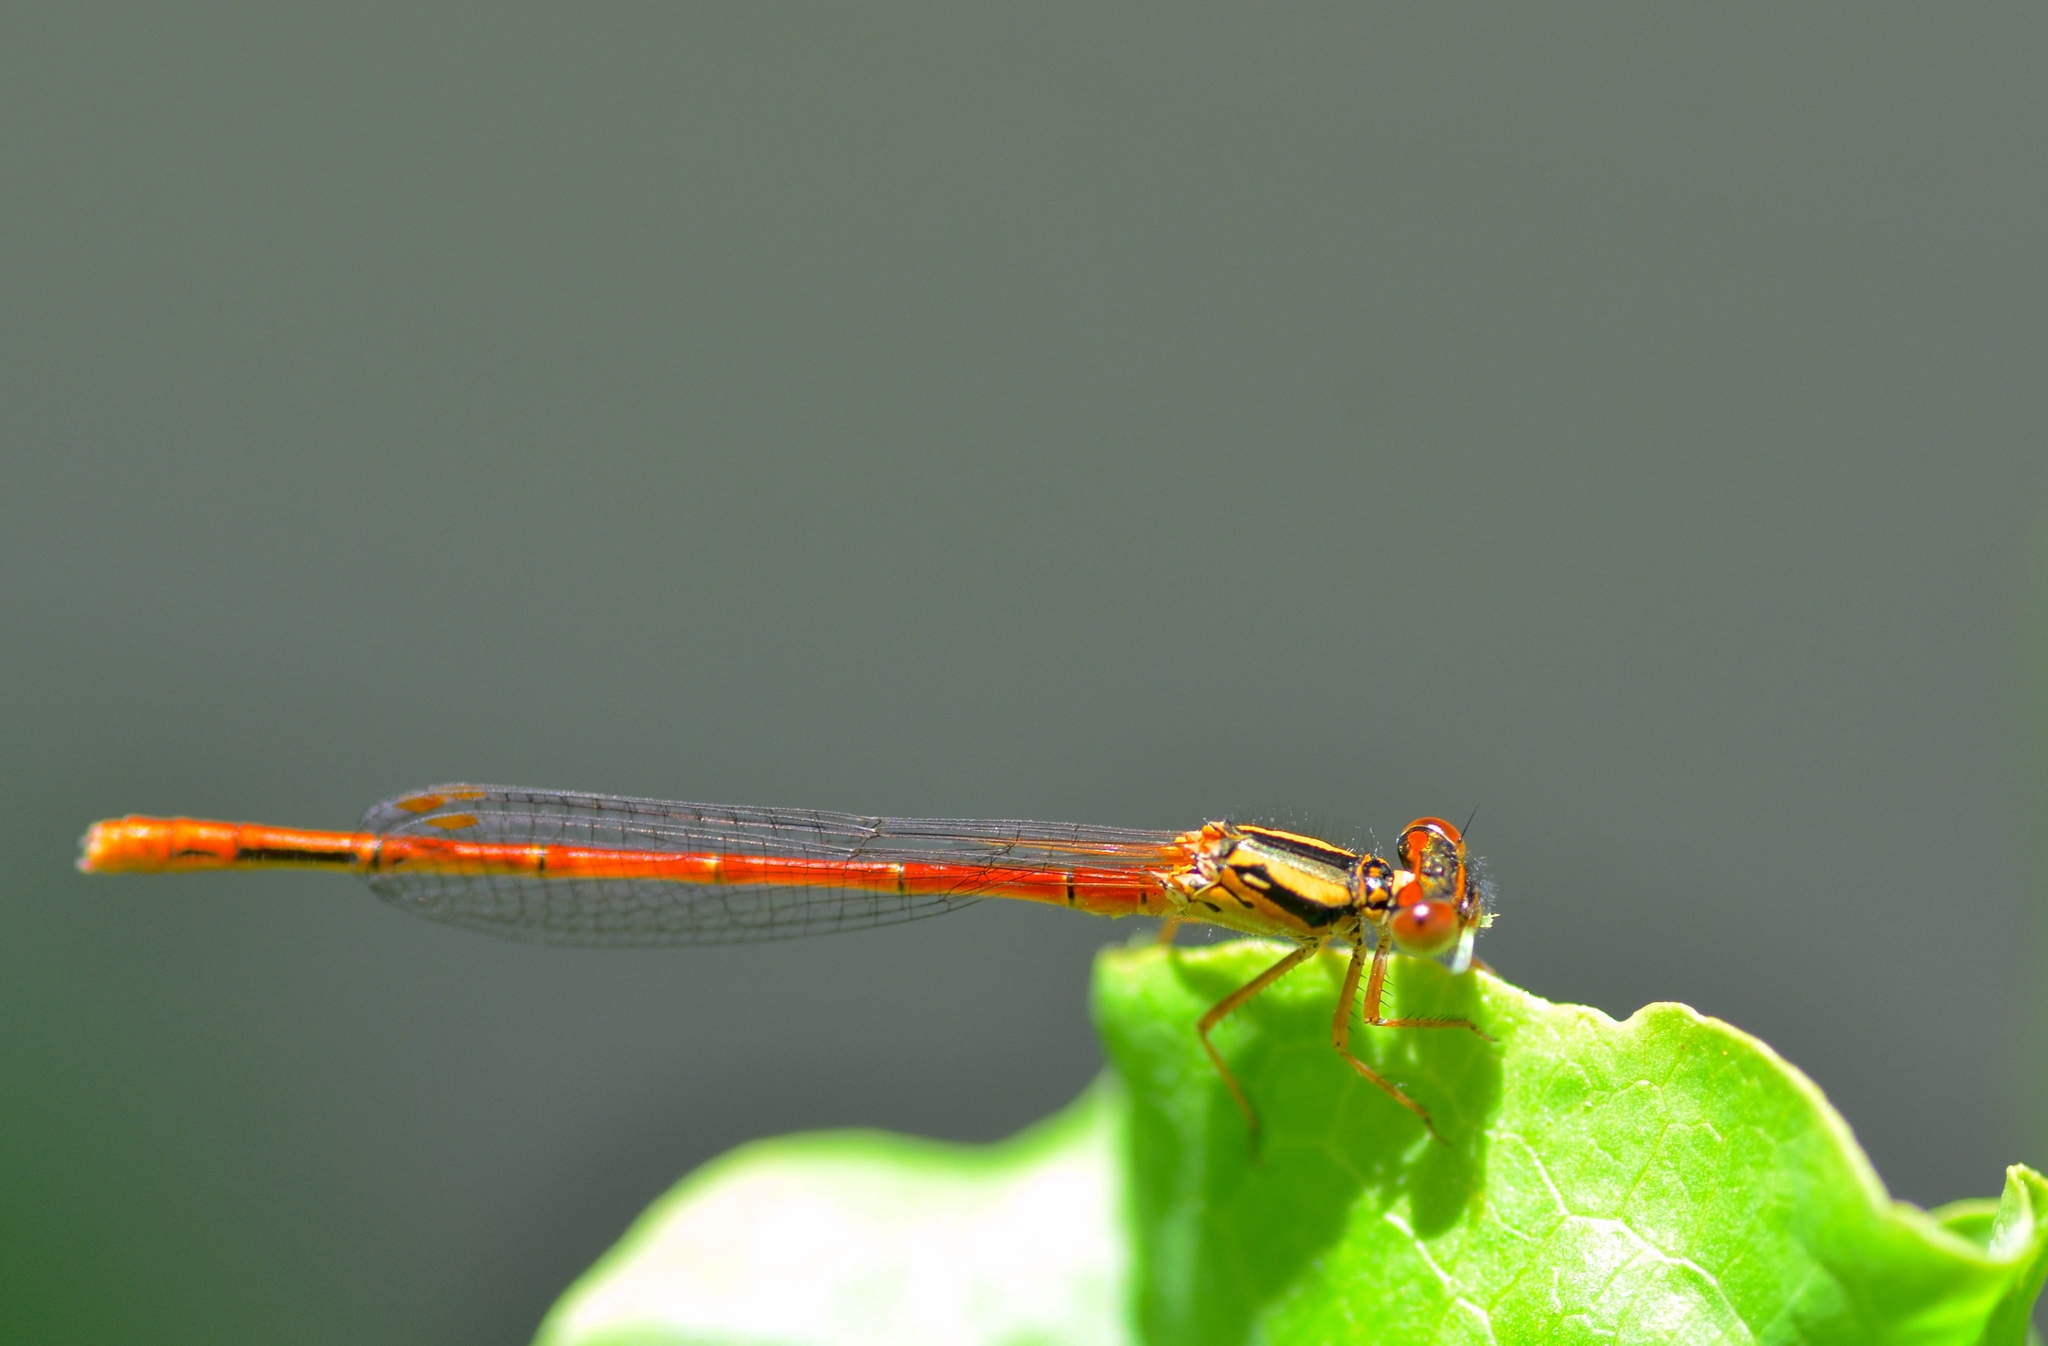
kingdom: Animalia
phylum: Arthropoda
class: Insecta
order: Odonata
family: Coenagrionidae
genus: Xanthocnemis
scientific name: Xanthocnemis zealandica
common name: Common redcoat damselfly
